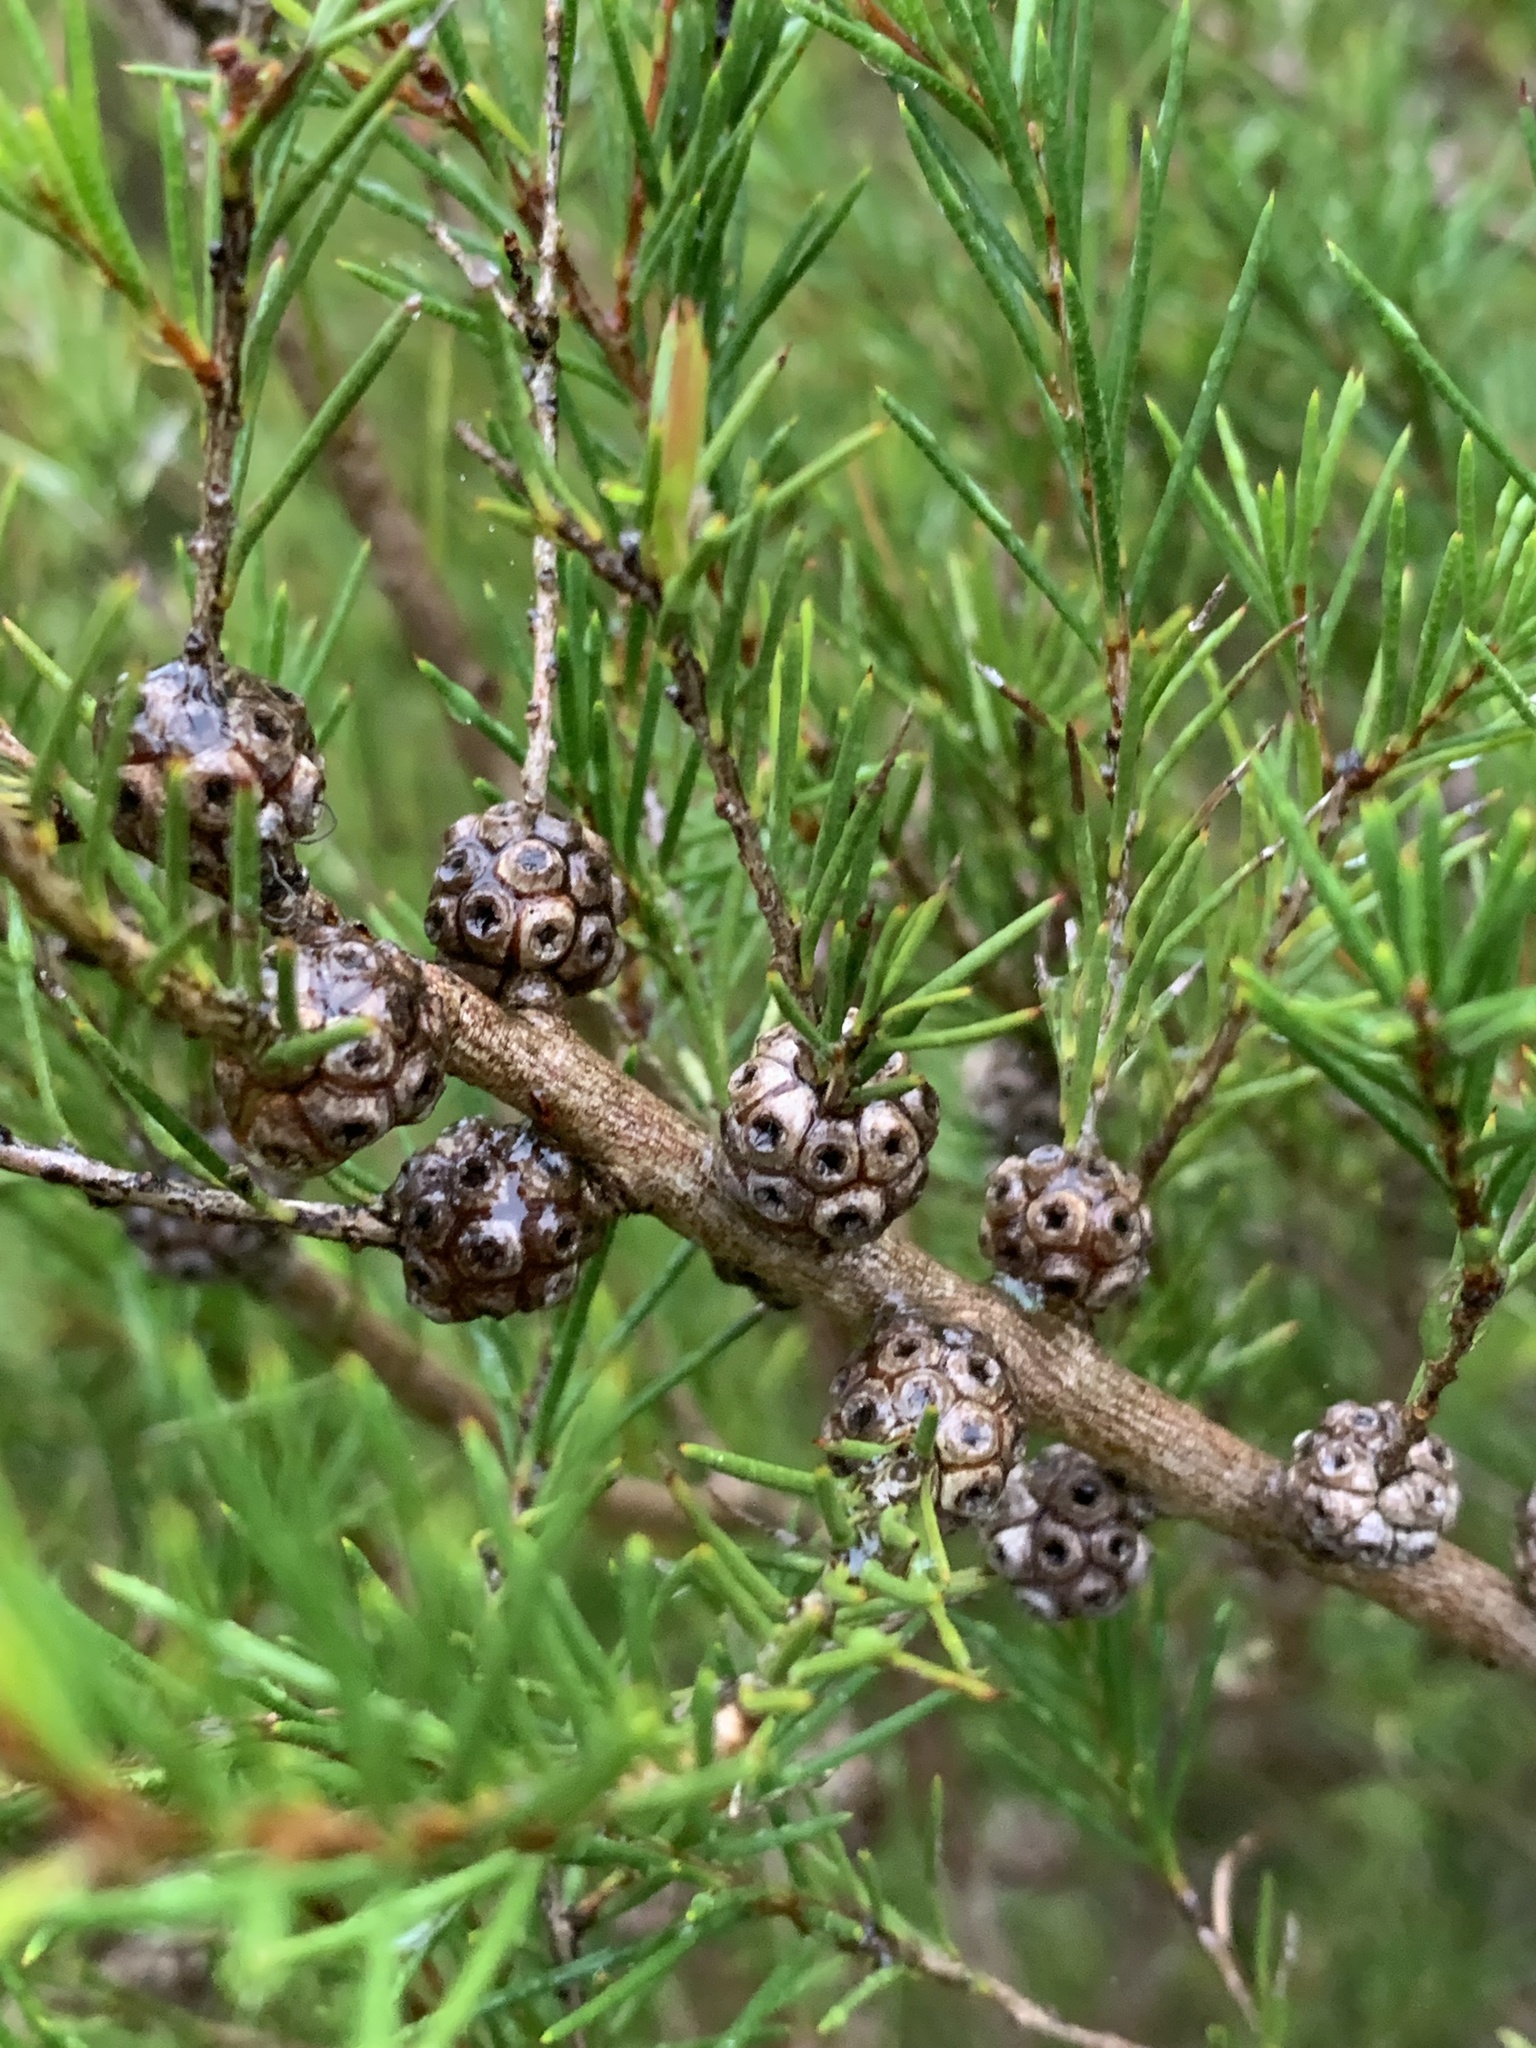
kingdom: Plantae
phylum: Tracheophyta
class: Magnoliopsida
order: Myrtales
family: Myrtaceae
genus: Melaleuca
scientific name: Melaleuca nodosa
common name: Prickly-leaf paperbark
